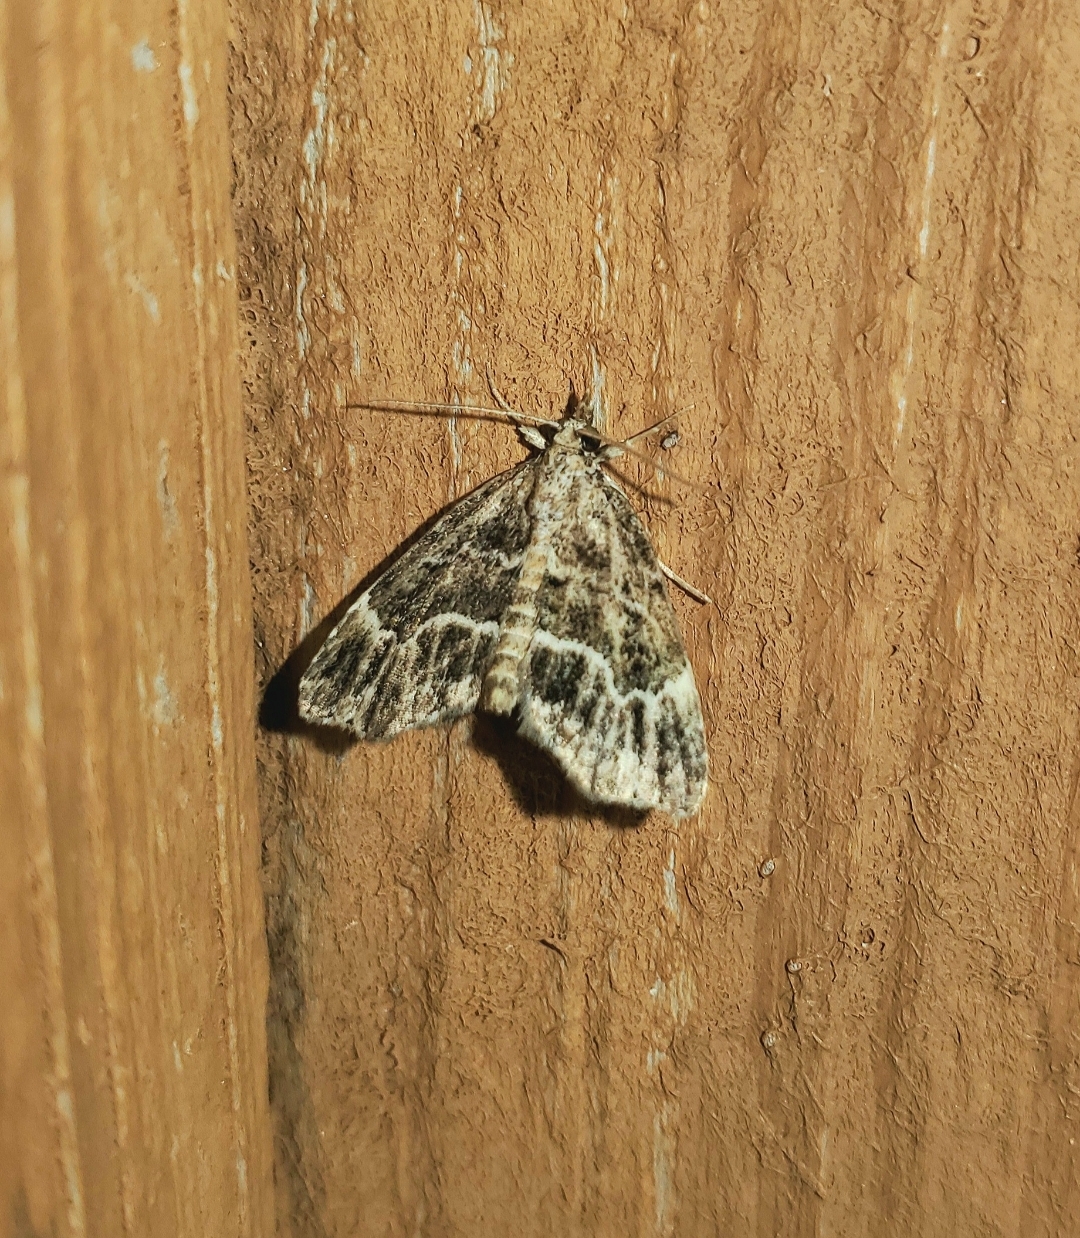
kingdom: Animalia
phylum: Arthropoda
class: Insecta
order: Lepidoptera
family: Erebidae
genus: Cutina
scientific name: Cutina arcuata
